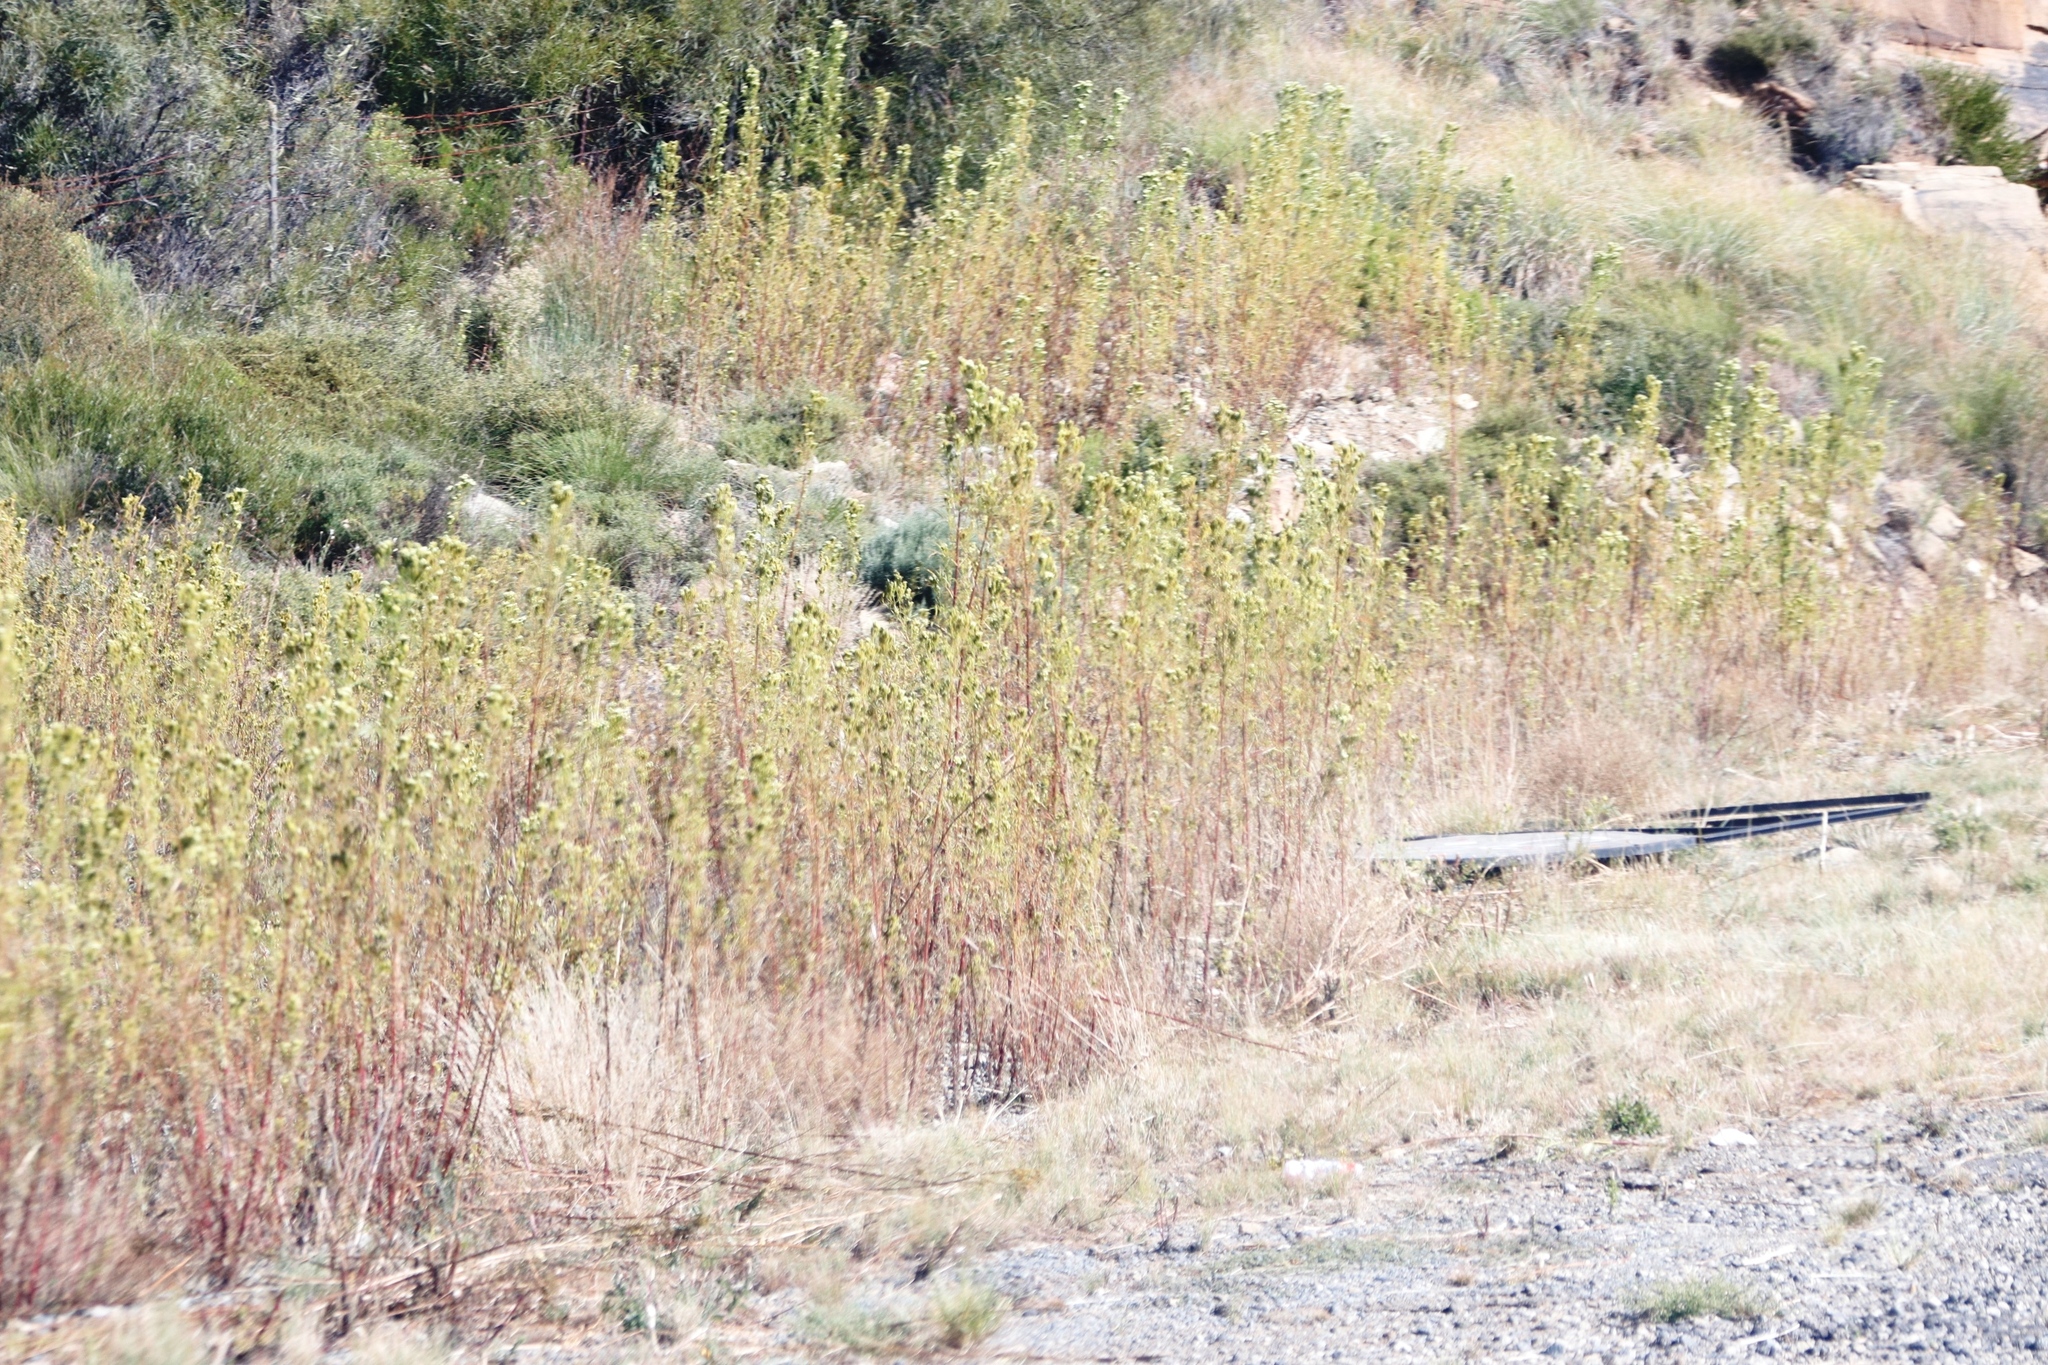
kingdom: Plantae
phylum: Tracheophyta
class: Magnoliopsida
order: Asterales
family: Asteraceae
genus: Tagetes
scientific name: Tagetes minuta
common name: Muster john henry
